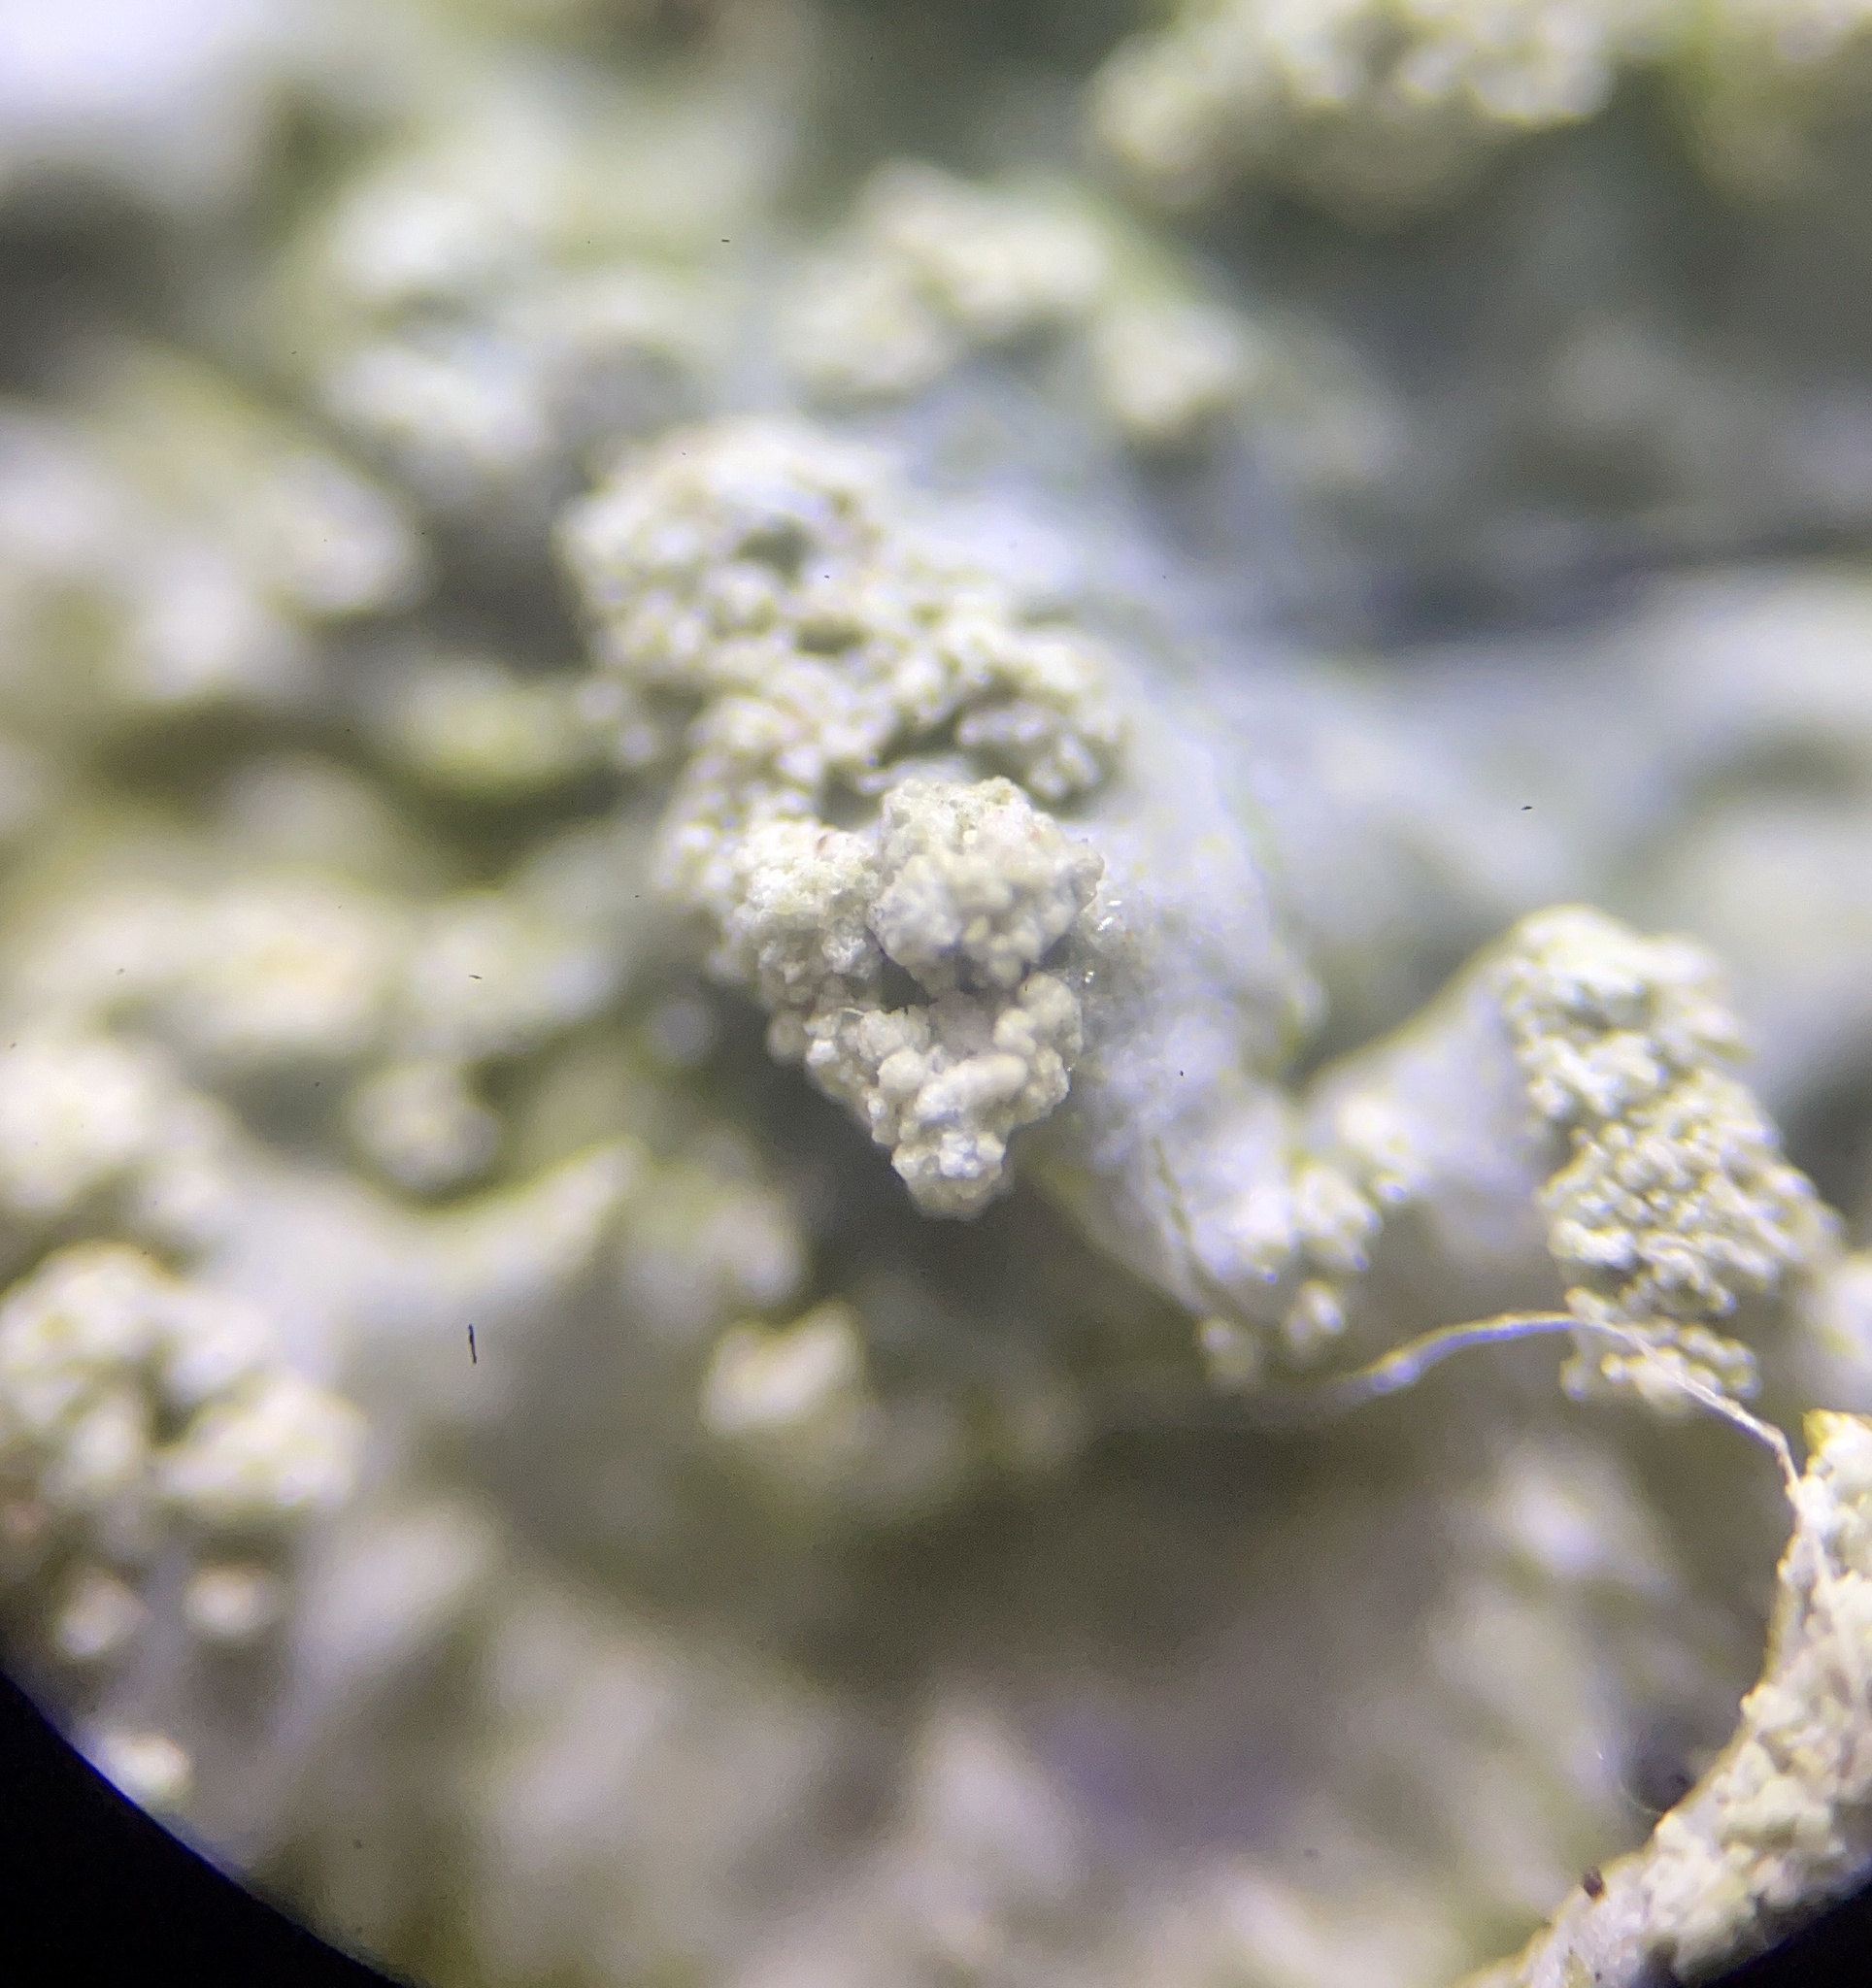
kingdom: Fungi
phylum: Ascomycota
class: Lecanoromycetes
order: Lecanorales
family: Parmeliaceae
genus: Canoparmelia
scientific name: Canoparmelia texana
